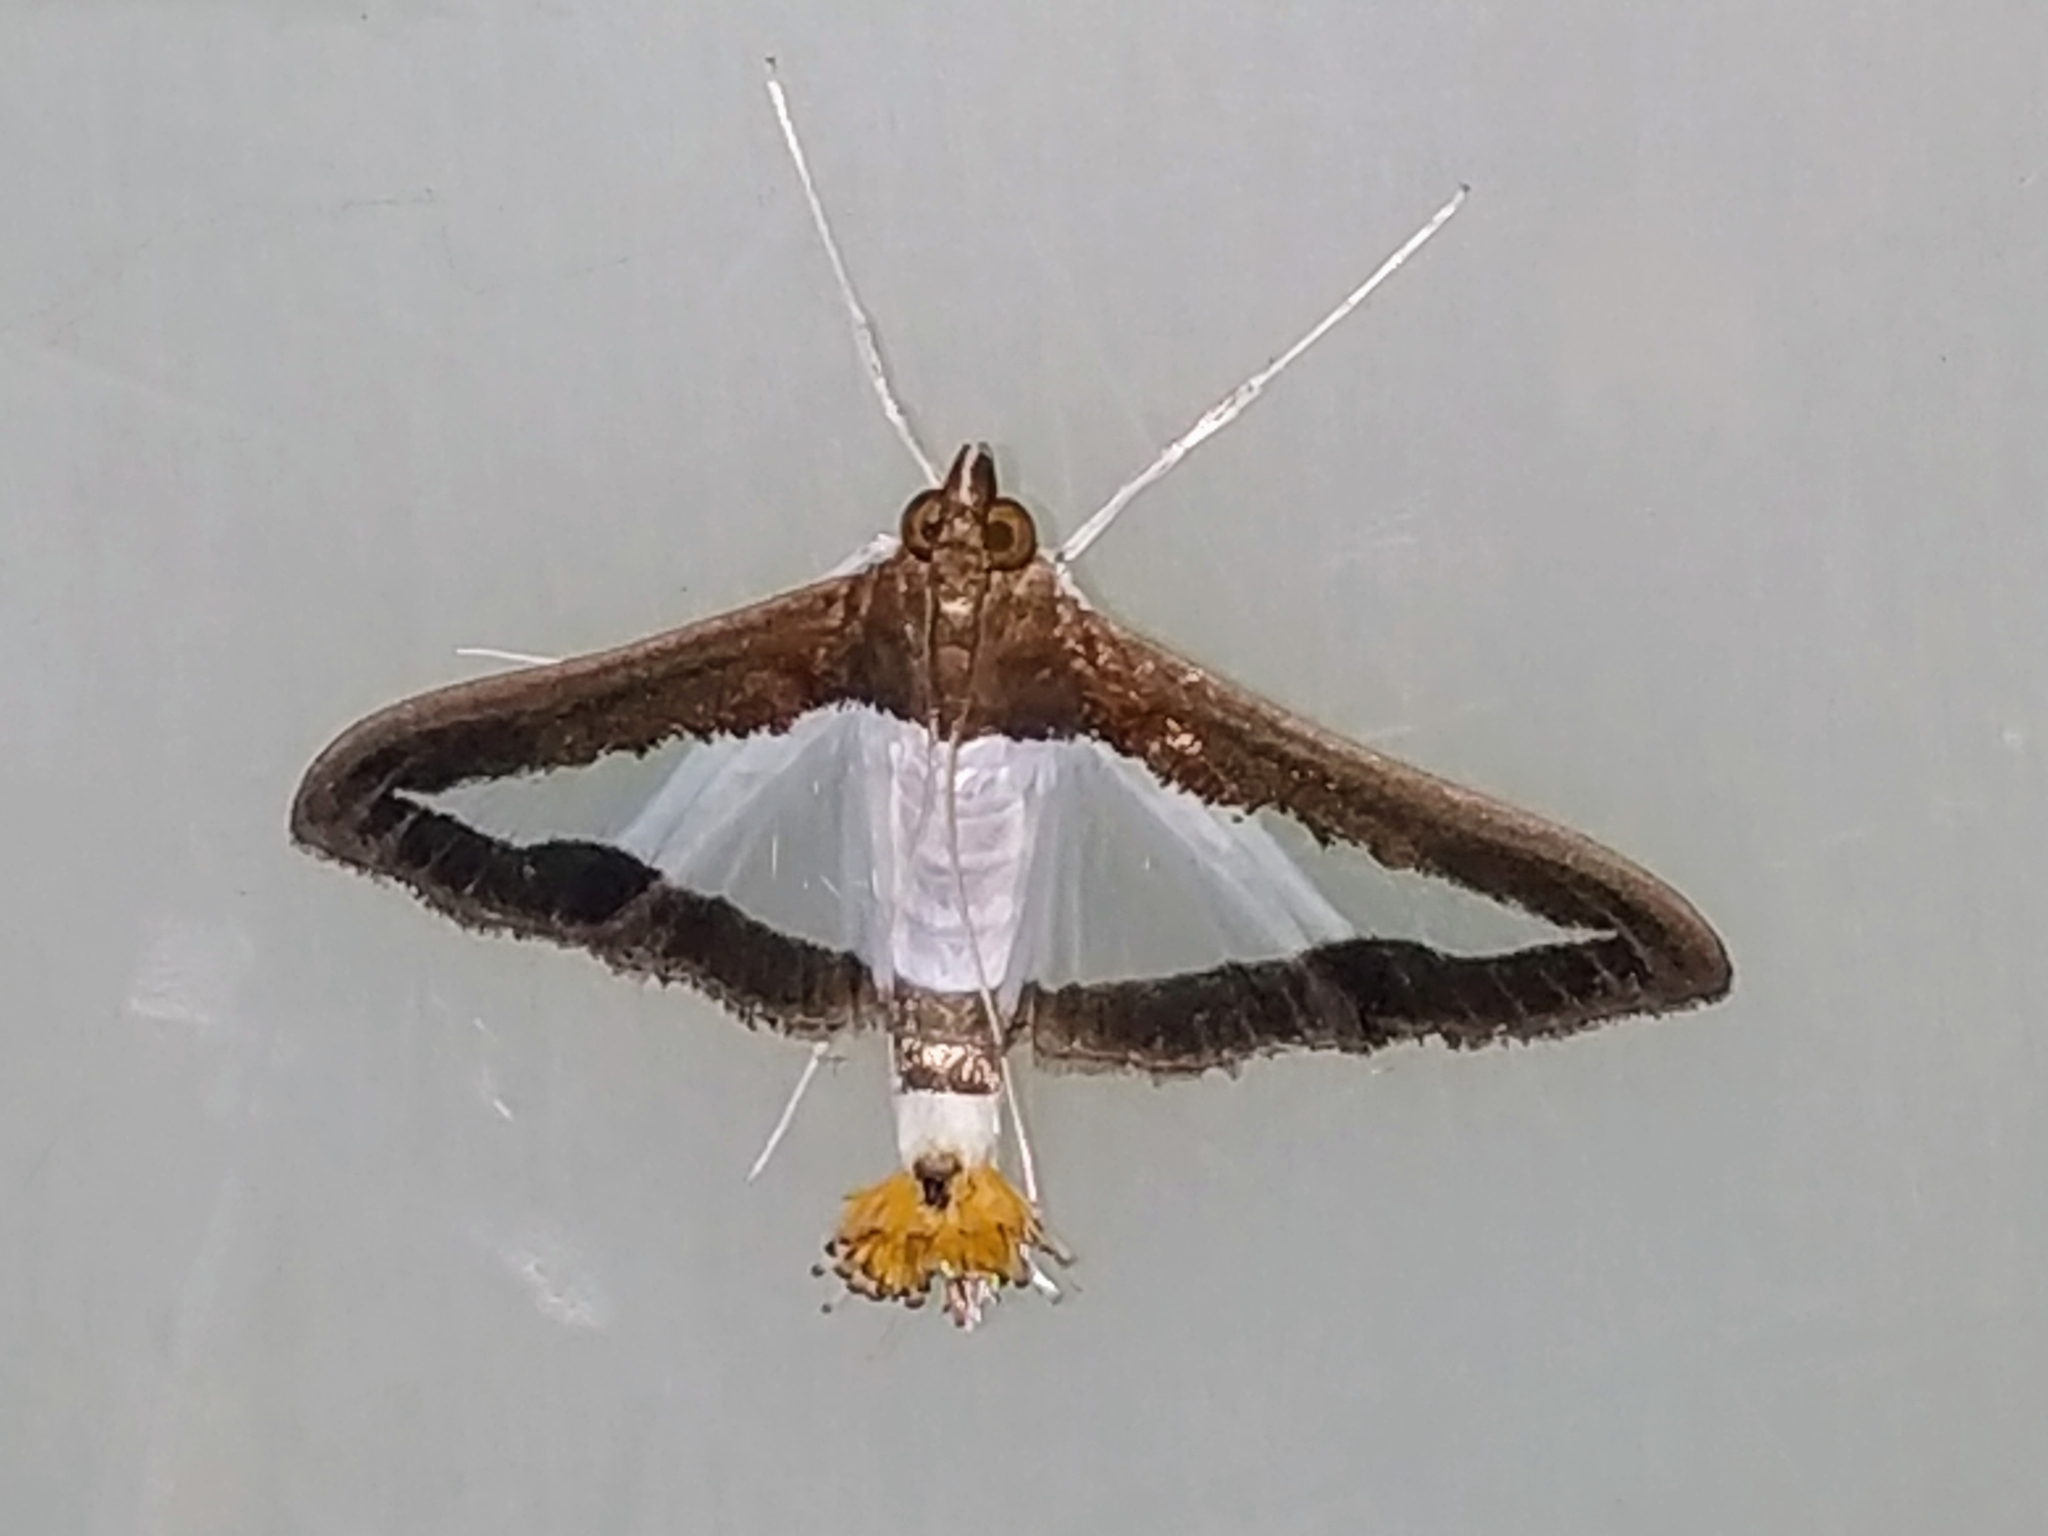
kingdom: Animalia
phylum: Arthropoda
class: Insecta
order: Lepidoptera
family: Crambidae
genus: Diaphania
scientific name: Diaphania indica
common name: Cucumber moth
